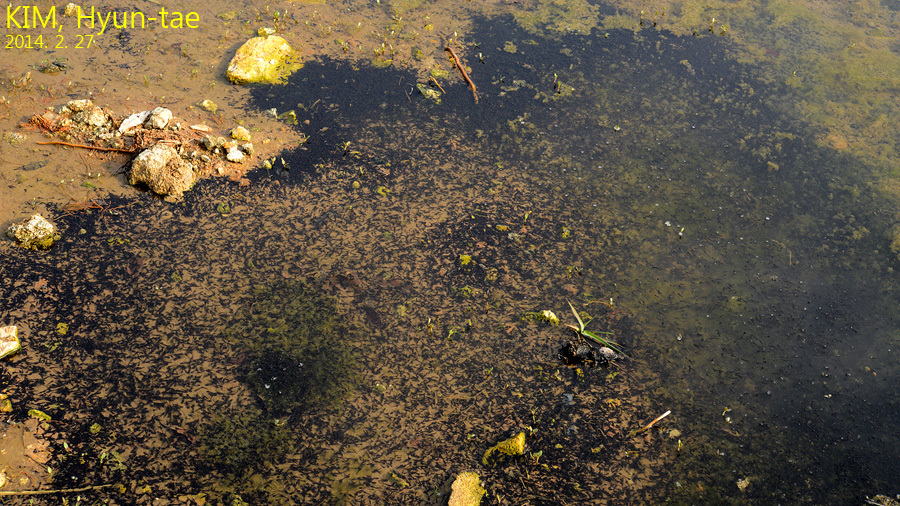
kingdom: Animalia
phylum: Chordata
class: Amphibia
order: Anura
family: Ranidae
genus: Rana
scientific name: Rana uenoi
